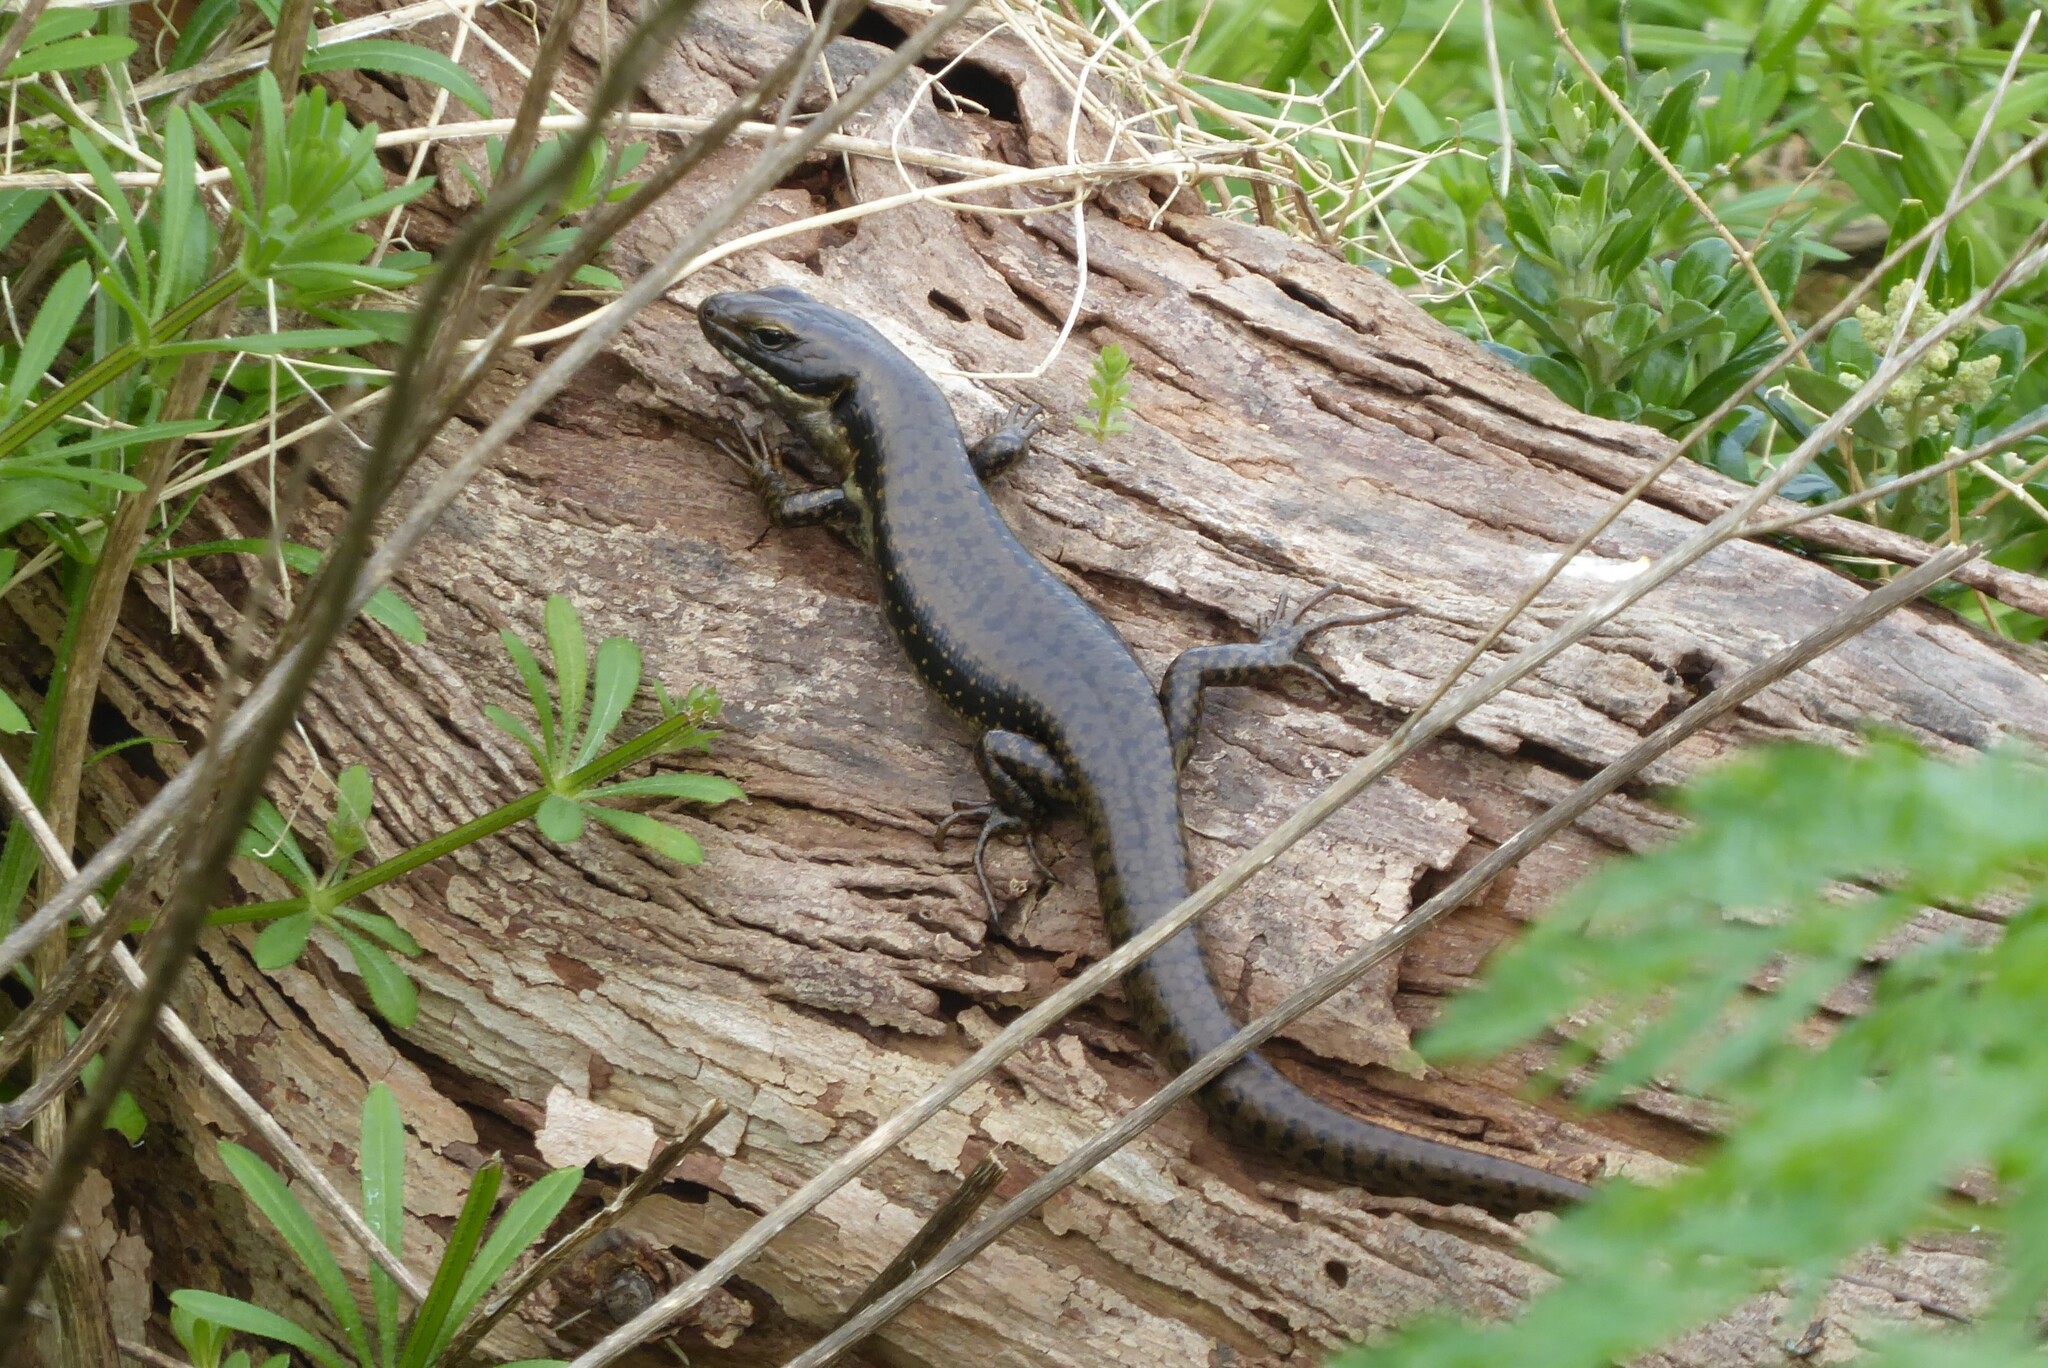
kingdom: Animalia
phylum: Chordata
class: Squamata
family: Scincidae
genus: Eulamprus
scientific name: Eulamprus tympanum
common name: Cool-temperate water-skink
